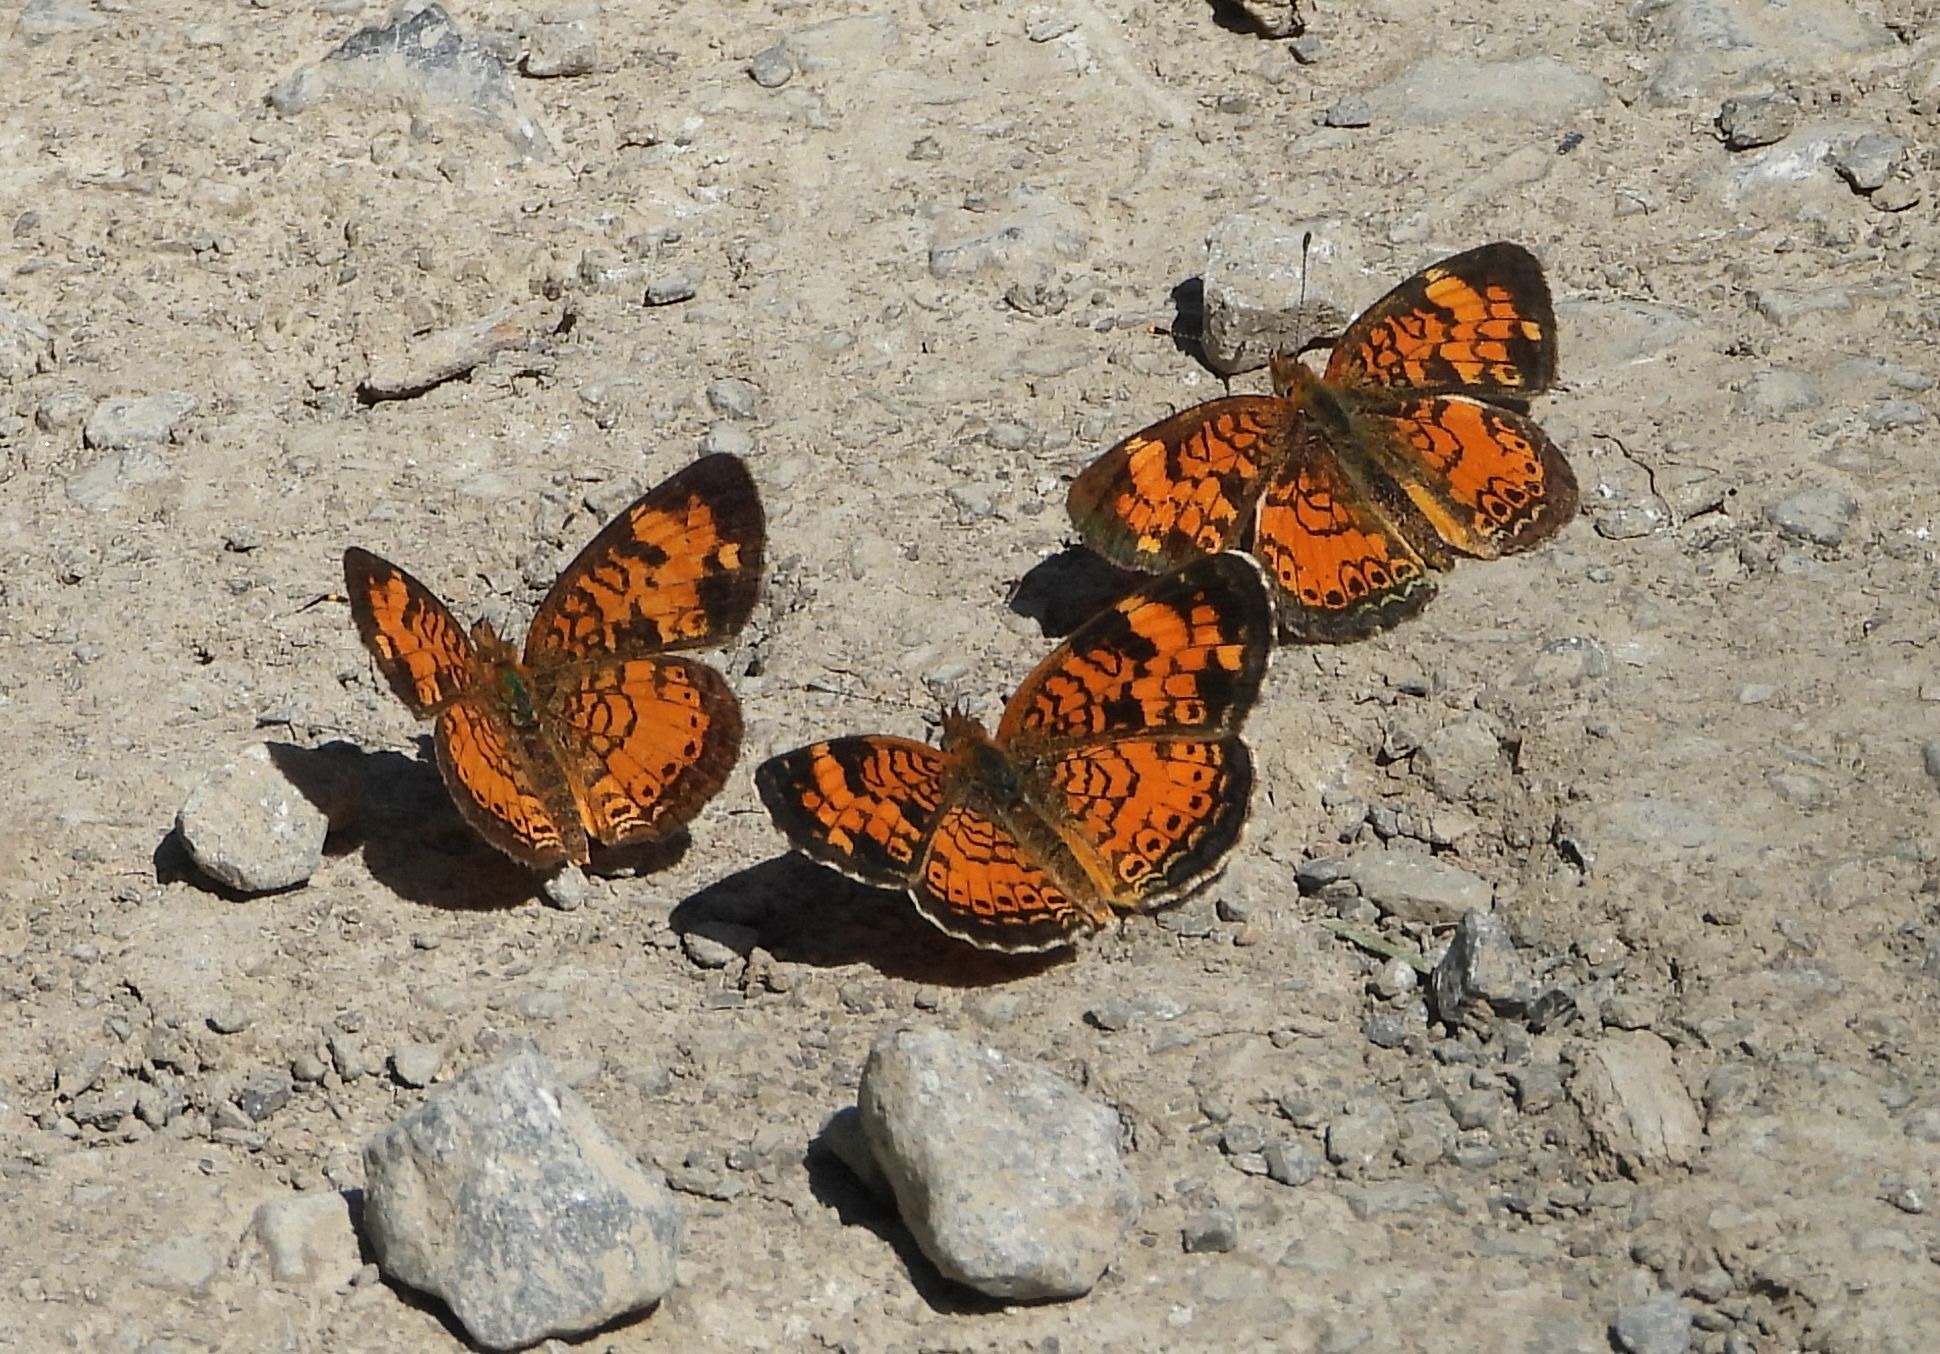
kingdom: Animalia
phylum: Arthropoda
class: Insecta
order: Lepidoptera
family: Nymphalidae
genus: Phyciodes
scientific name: Phyciodes tharos
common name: Pearl crescent
